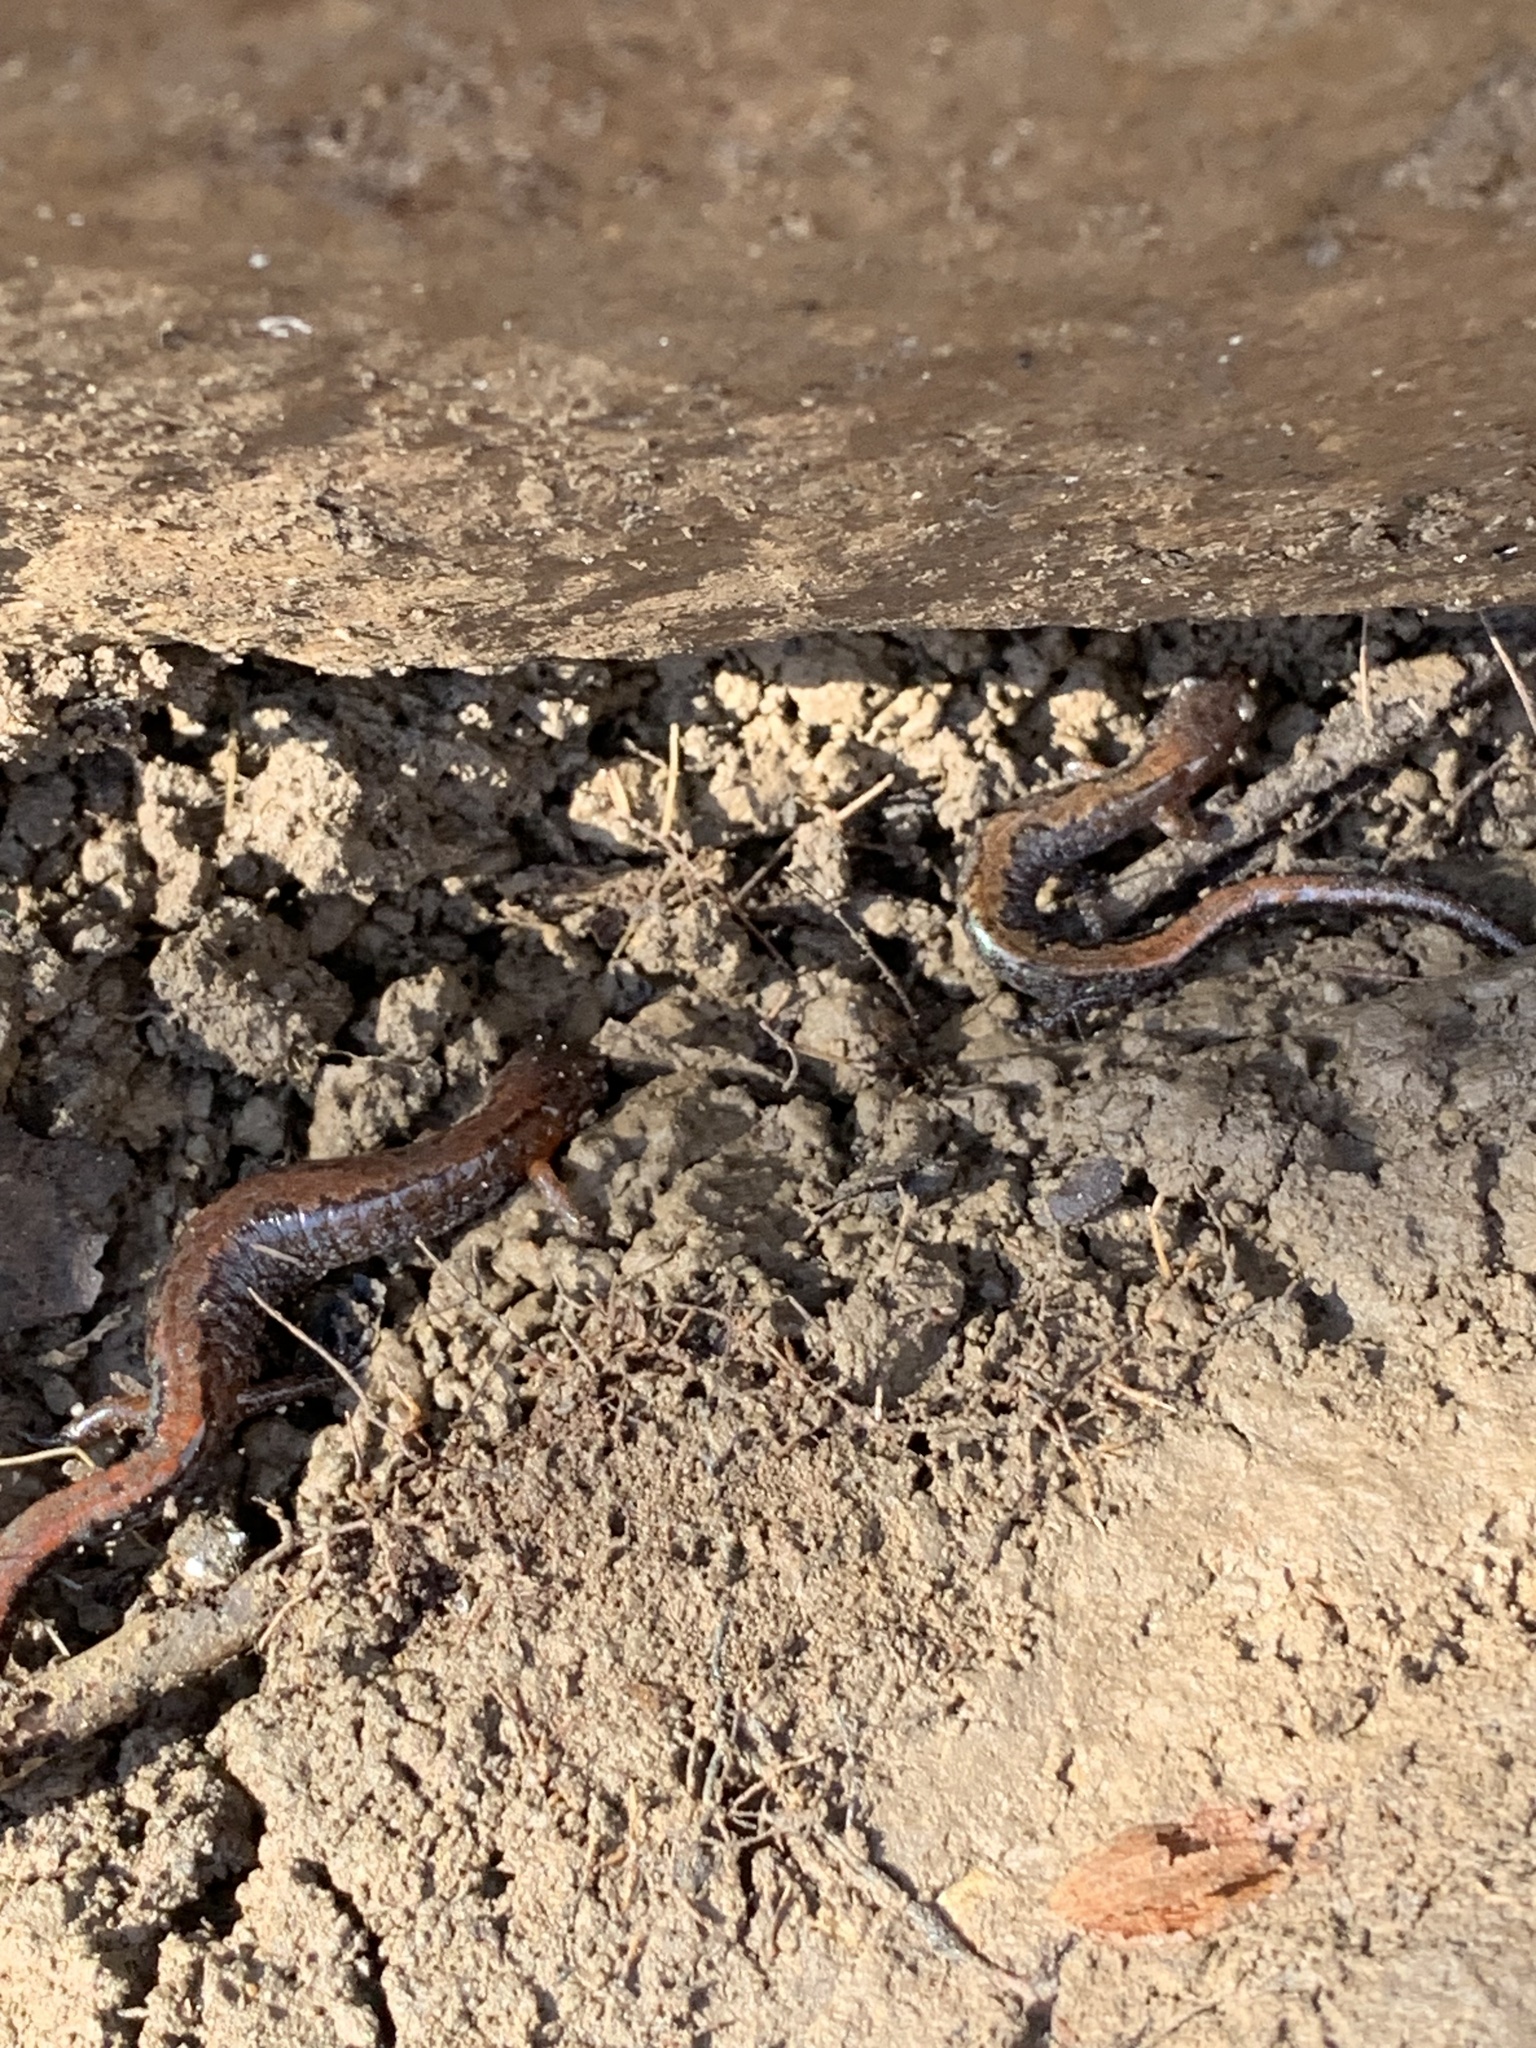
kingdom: Animalia
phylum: Chordata
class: Amphibia
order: Caudata
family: Plethodontidae
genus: Plethodon
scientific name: Plethodon dorsalis
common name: Northern zigzag salamander
